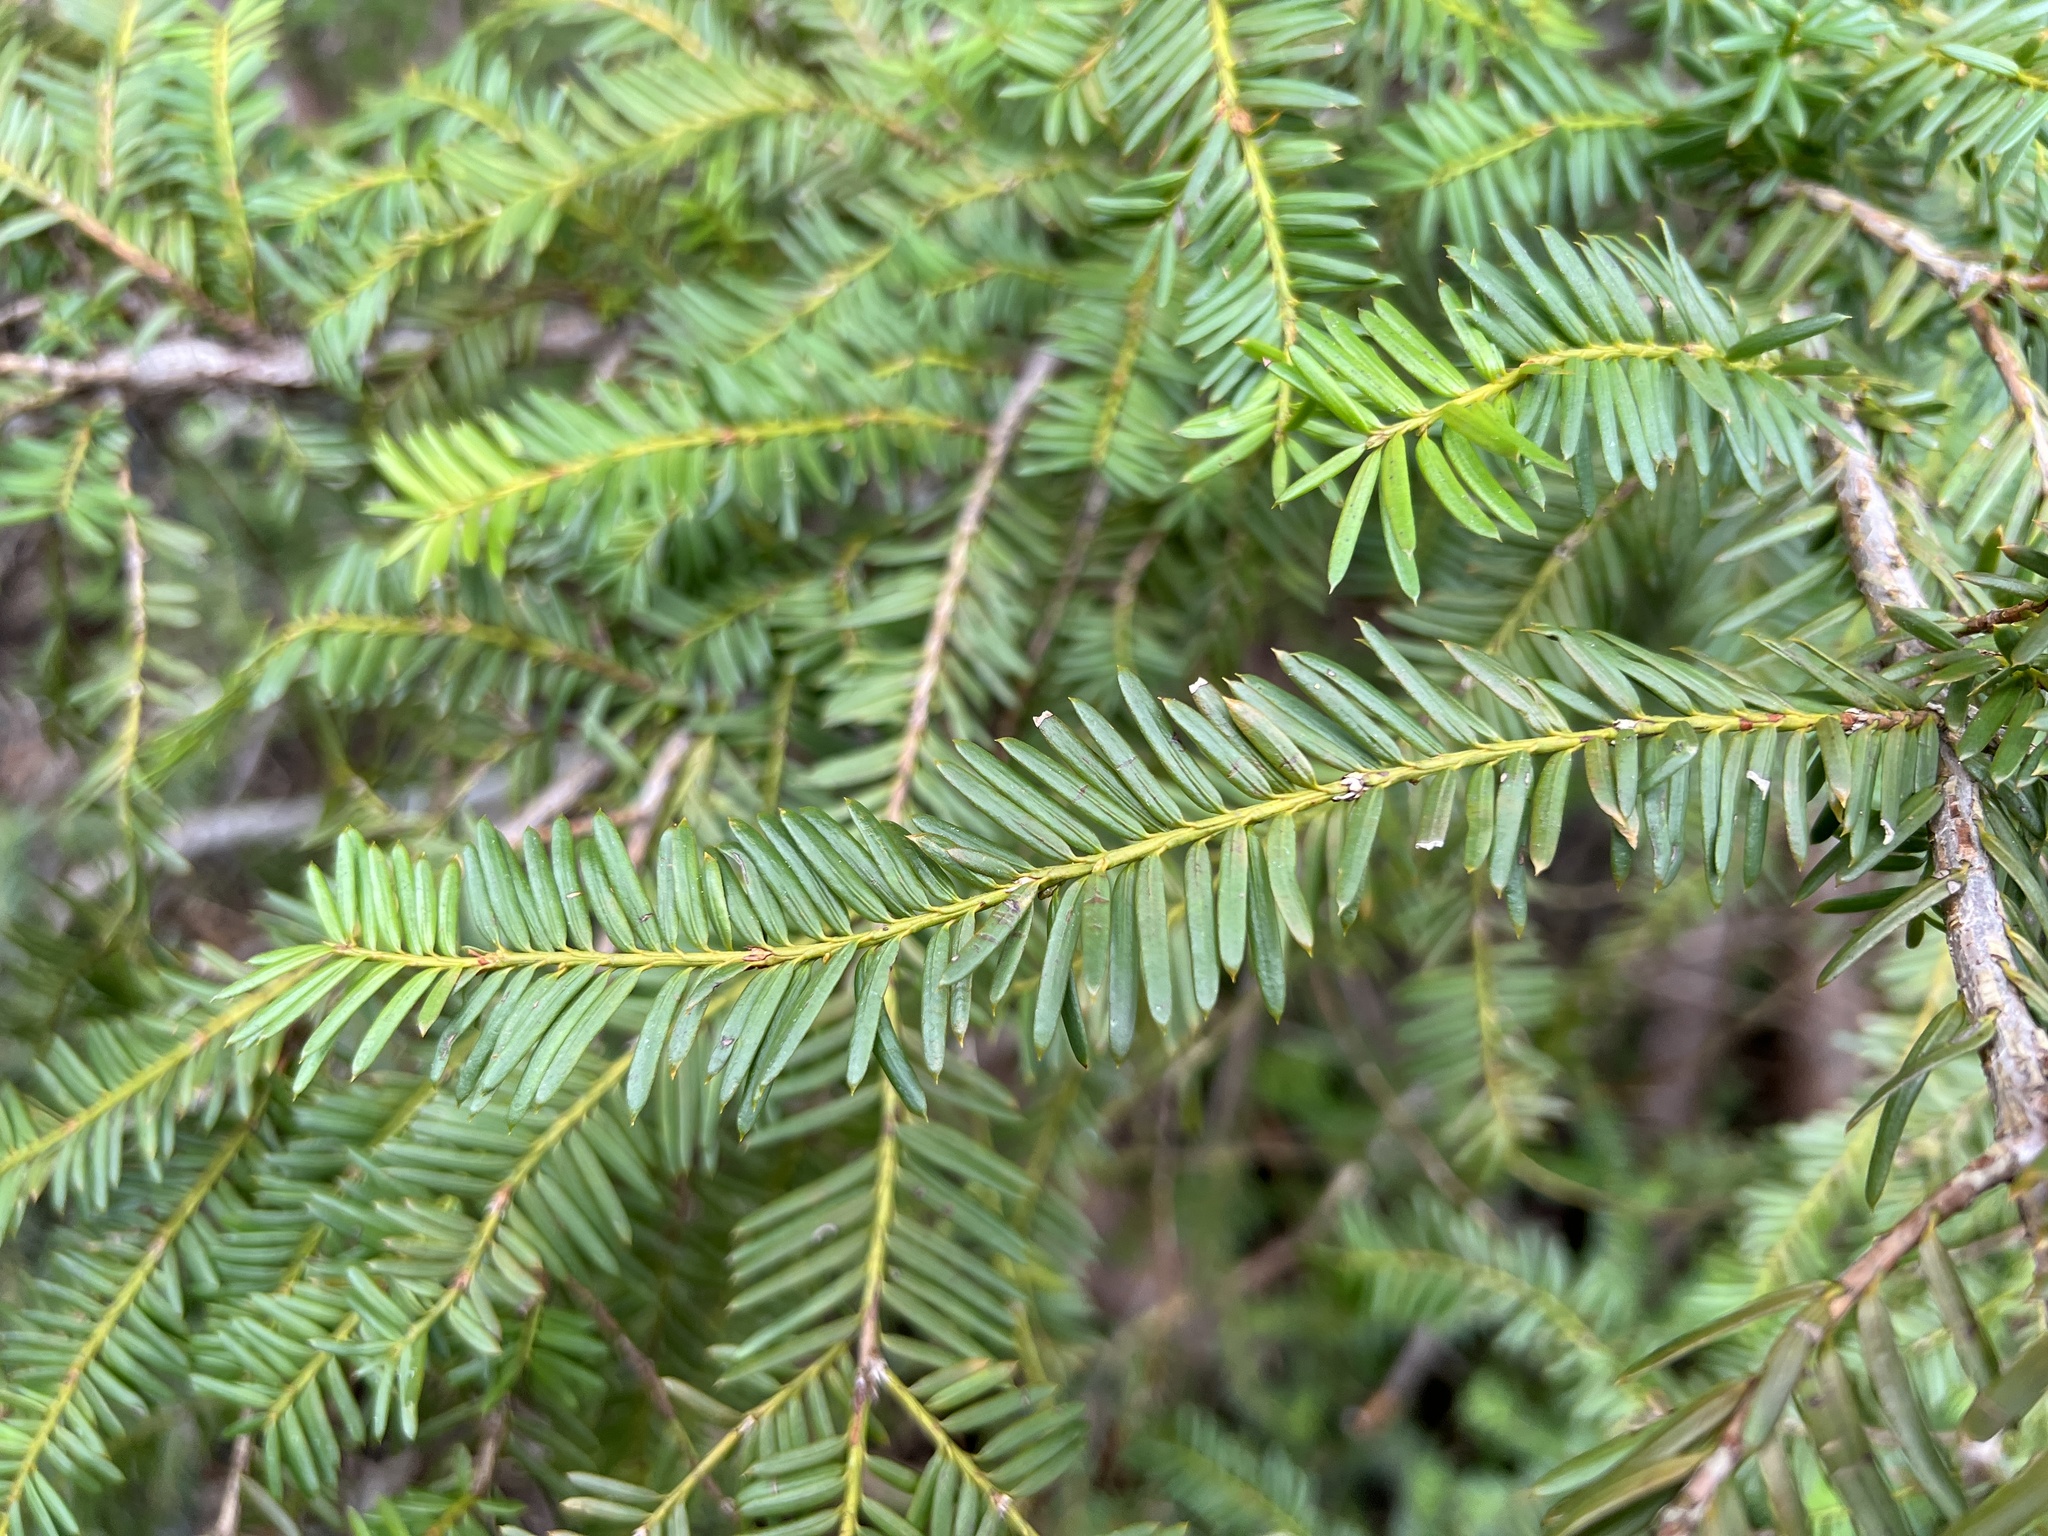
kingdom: Plantae
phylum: Tracheophyta
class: Pinopsida
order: Pinales
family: Taxaceae
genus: Taxus
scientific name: Taxus brevifolia
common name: Pacific yew
